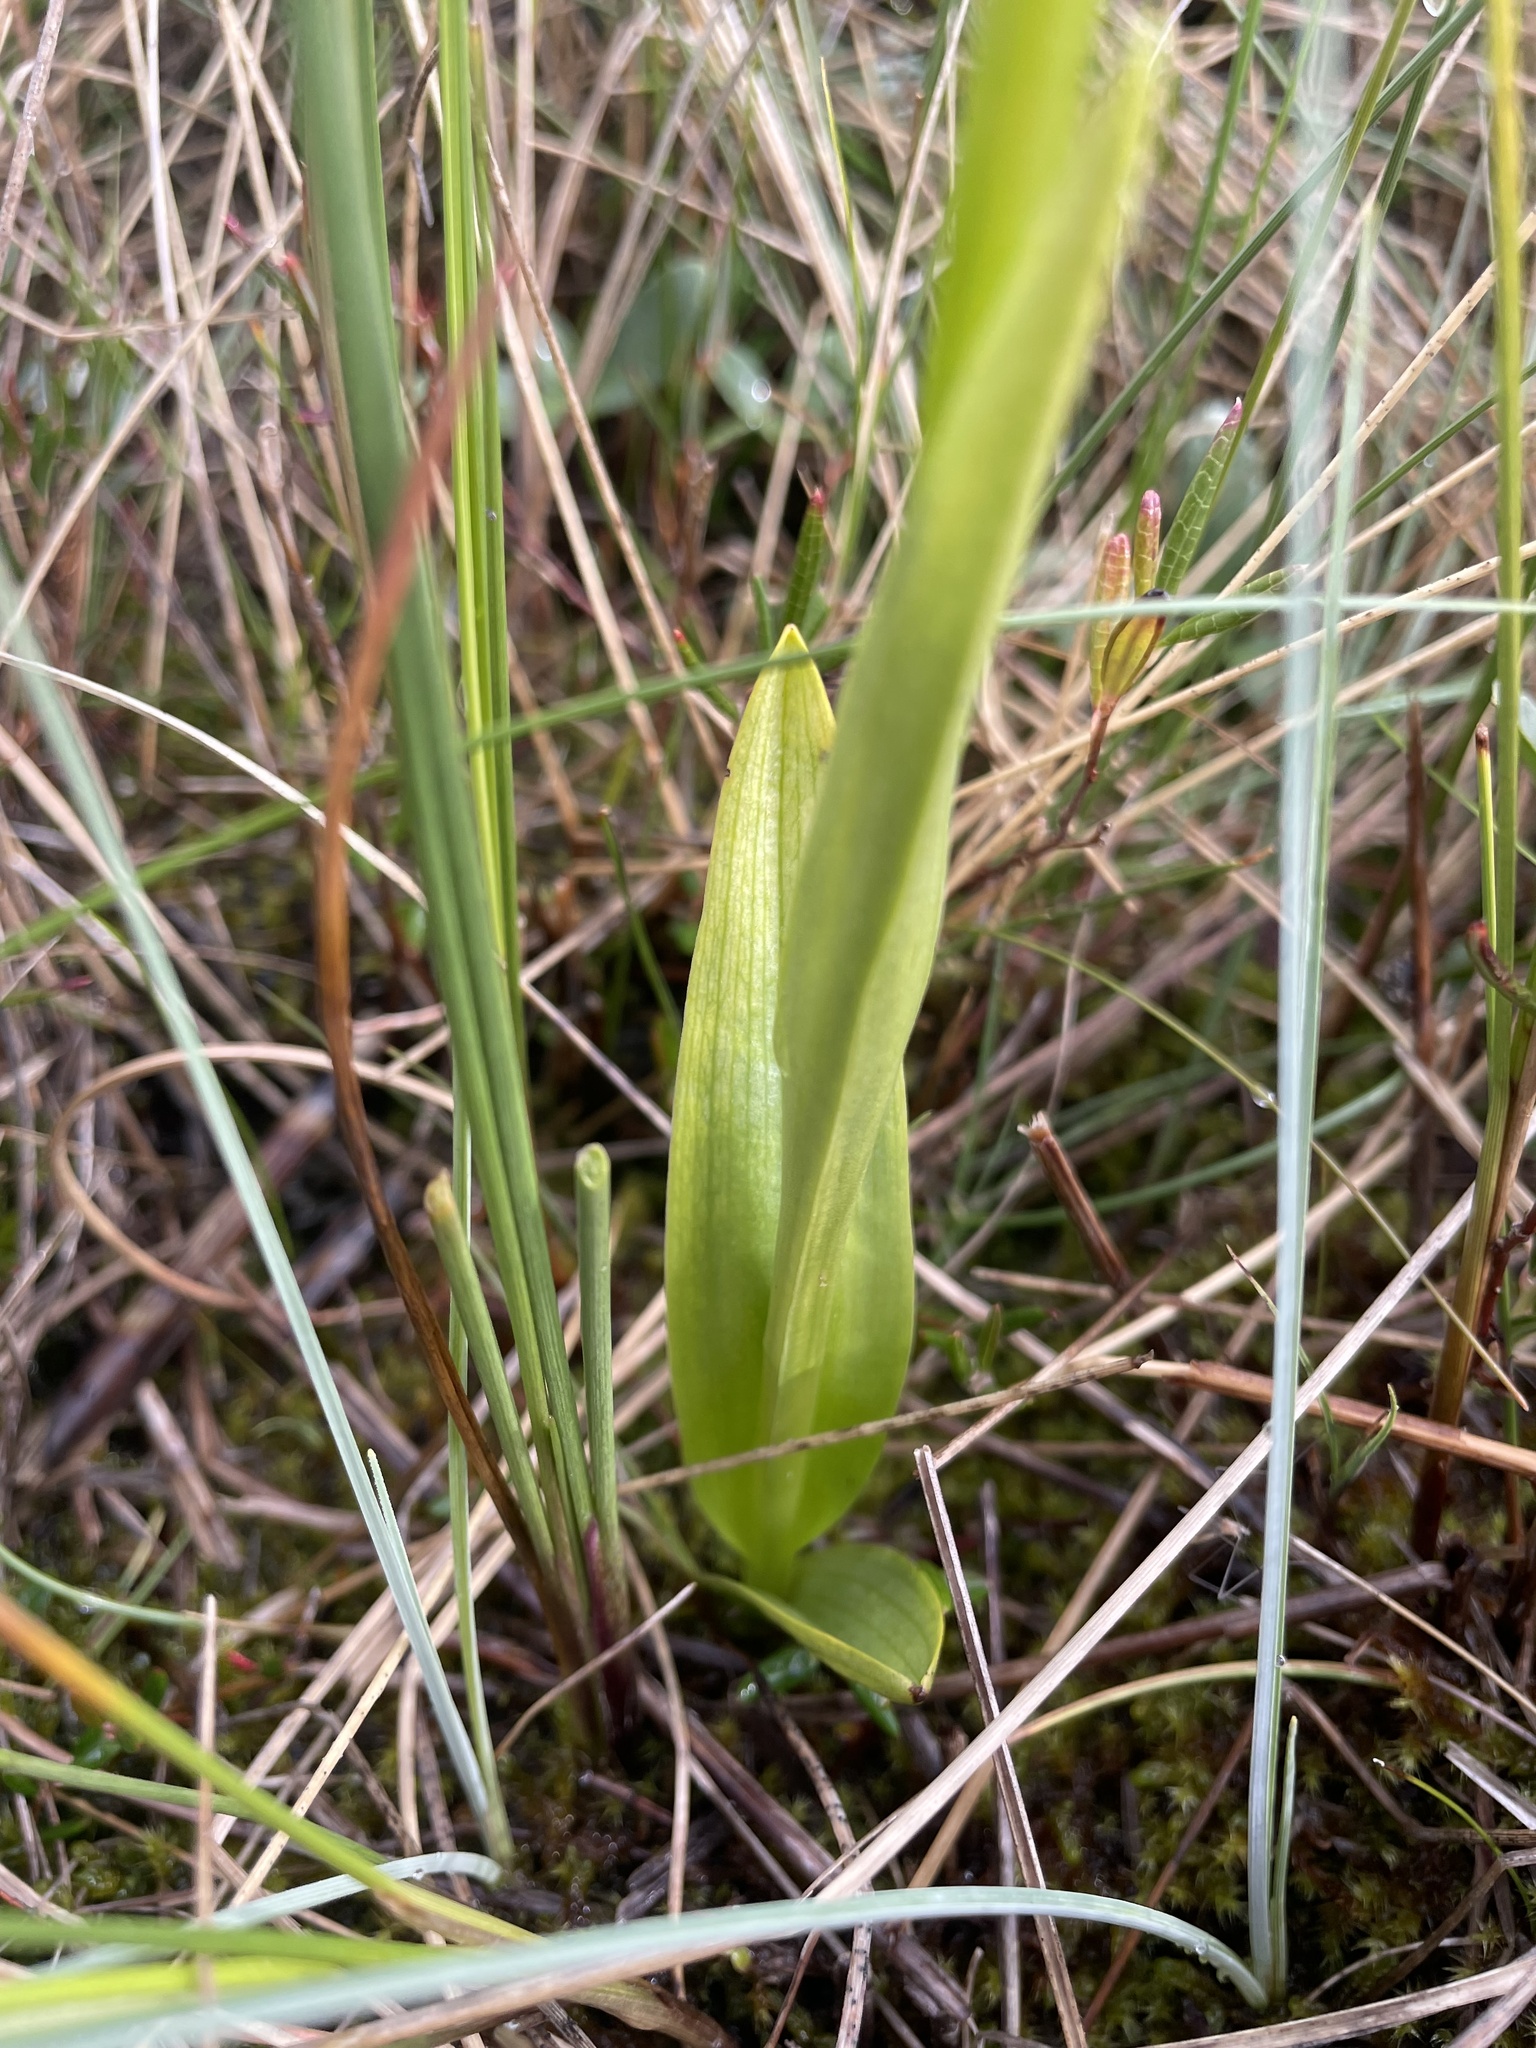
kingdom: Plantae
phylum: Tracheophyta
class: Liliopsida
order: Asparagales
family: Orchidaceae
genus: Platanthera
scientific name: Platanthera aquilonis
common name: Northern green orchid
